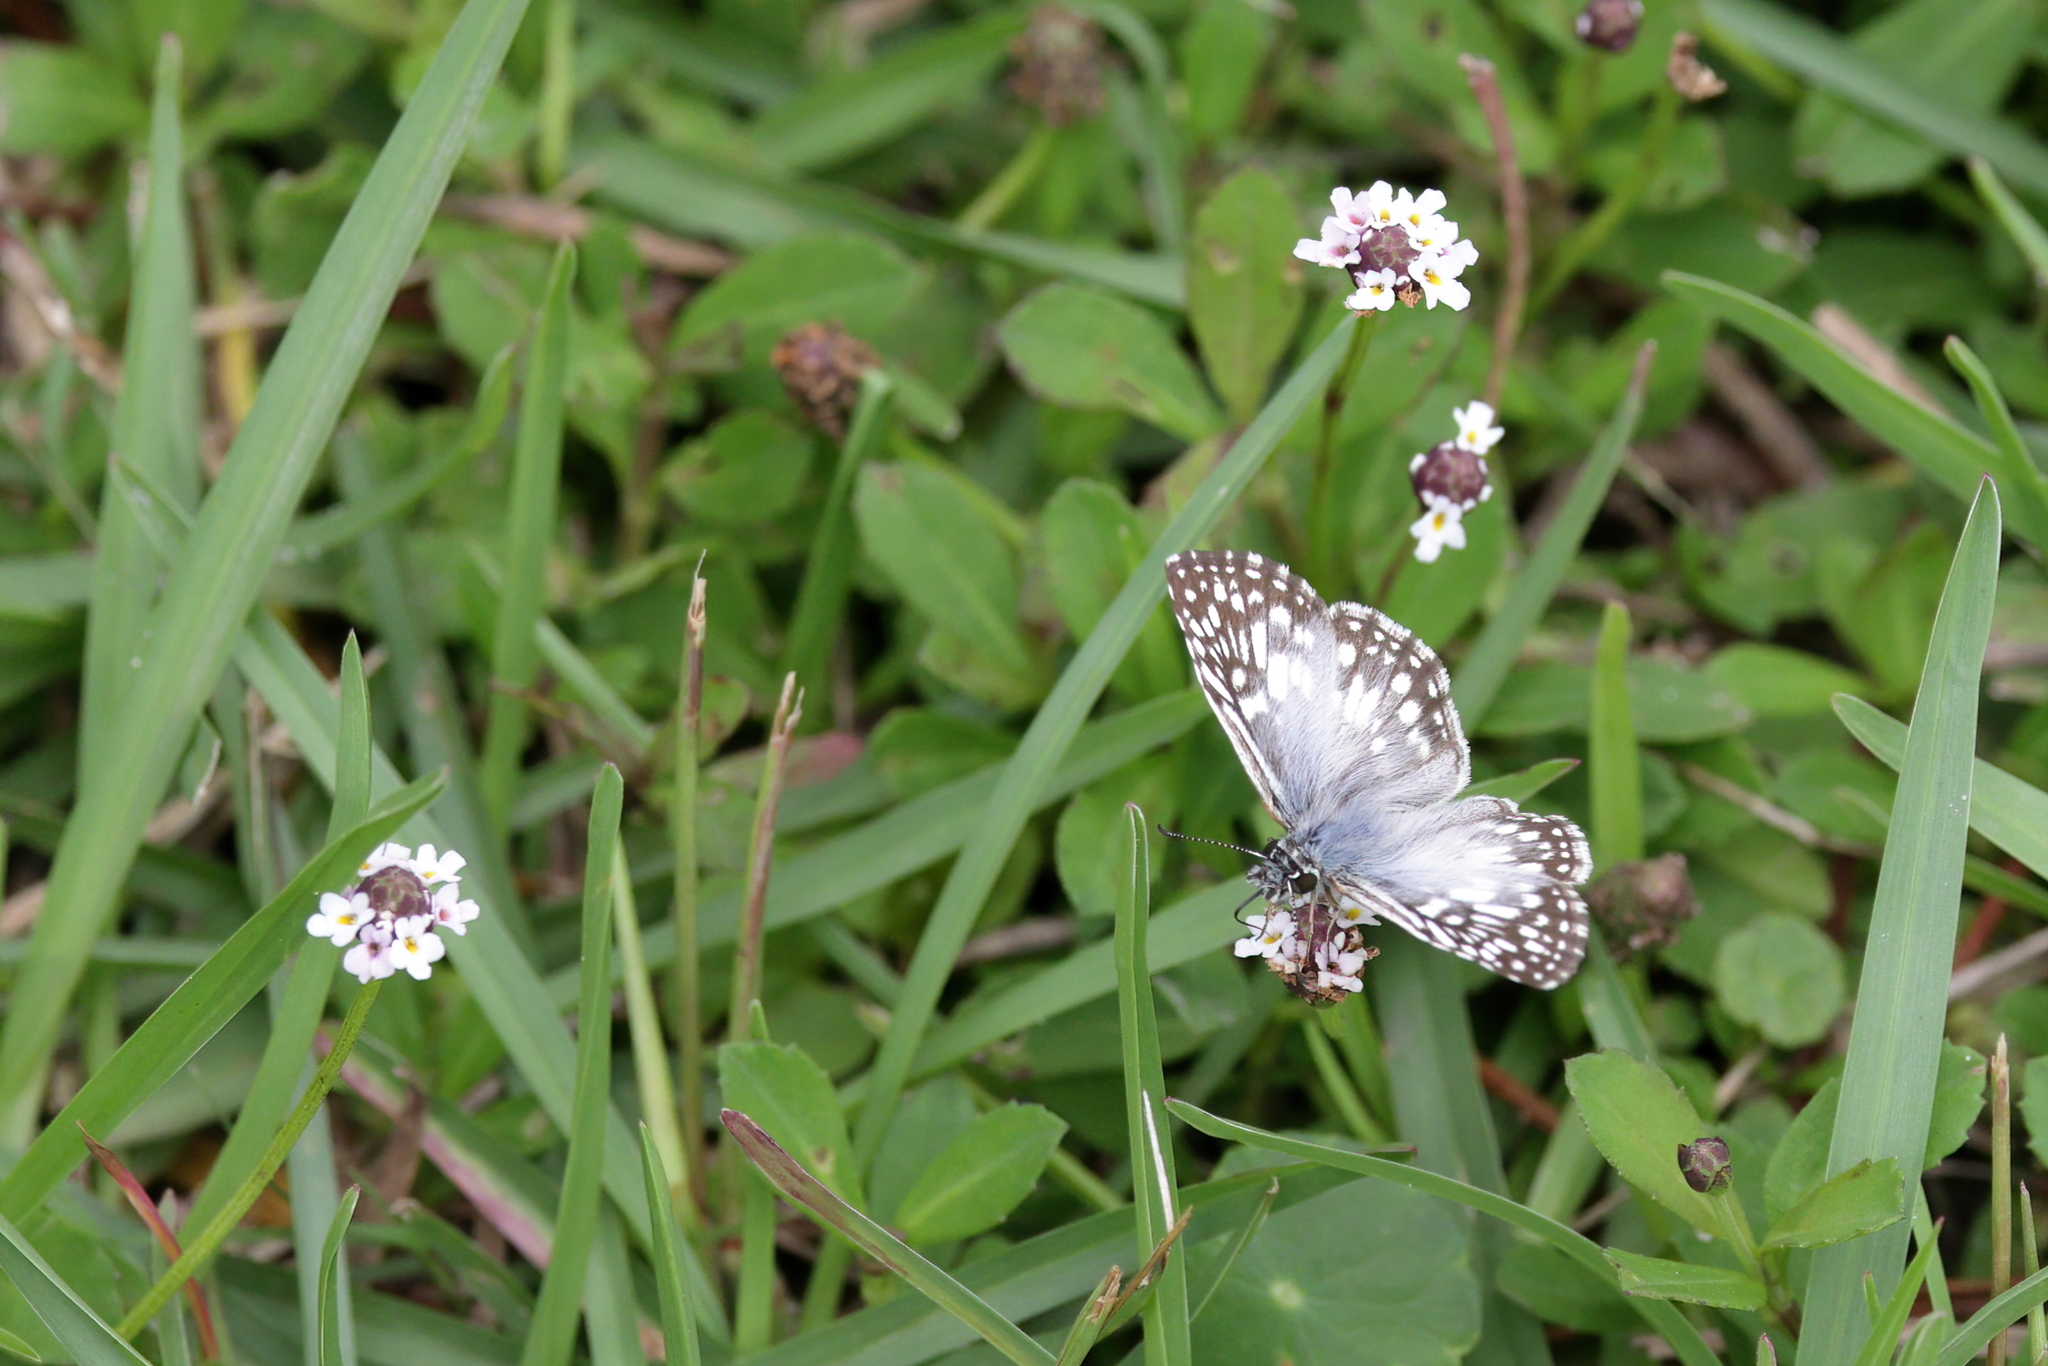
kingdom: Animalia
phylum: Arthropoda
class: Insecta
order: Lepidoptera
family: Hesperiidae
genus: Pyrgus
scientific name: Pyrgus oileus
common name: Tropical checkered-skipper
